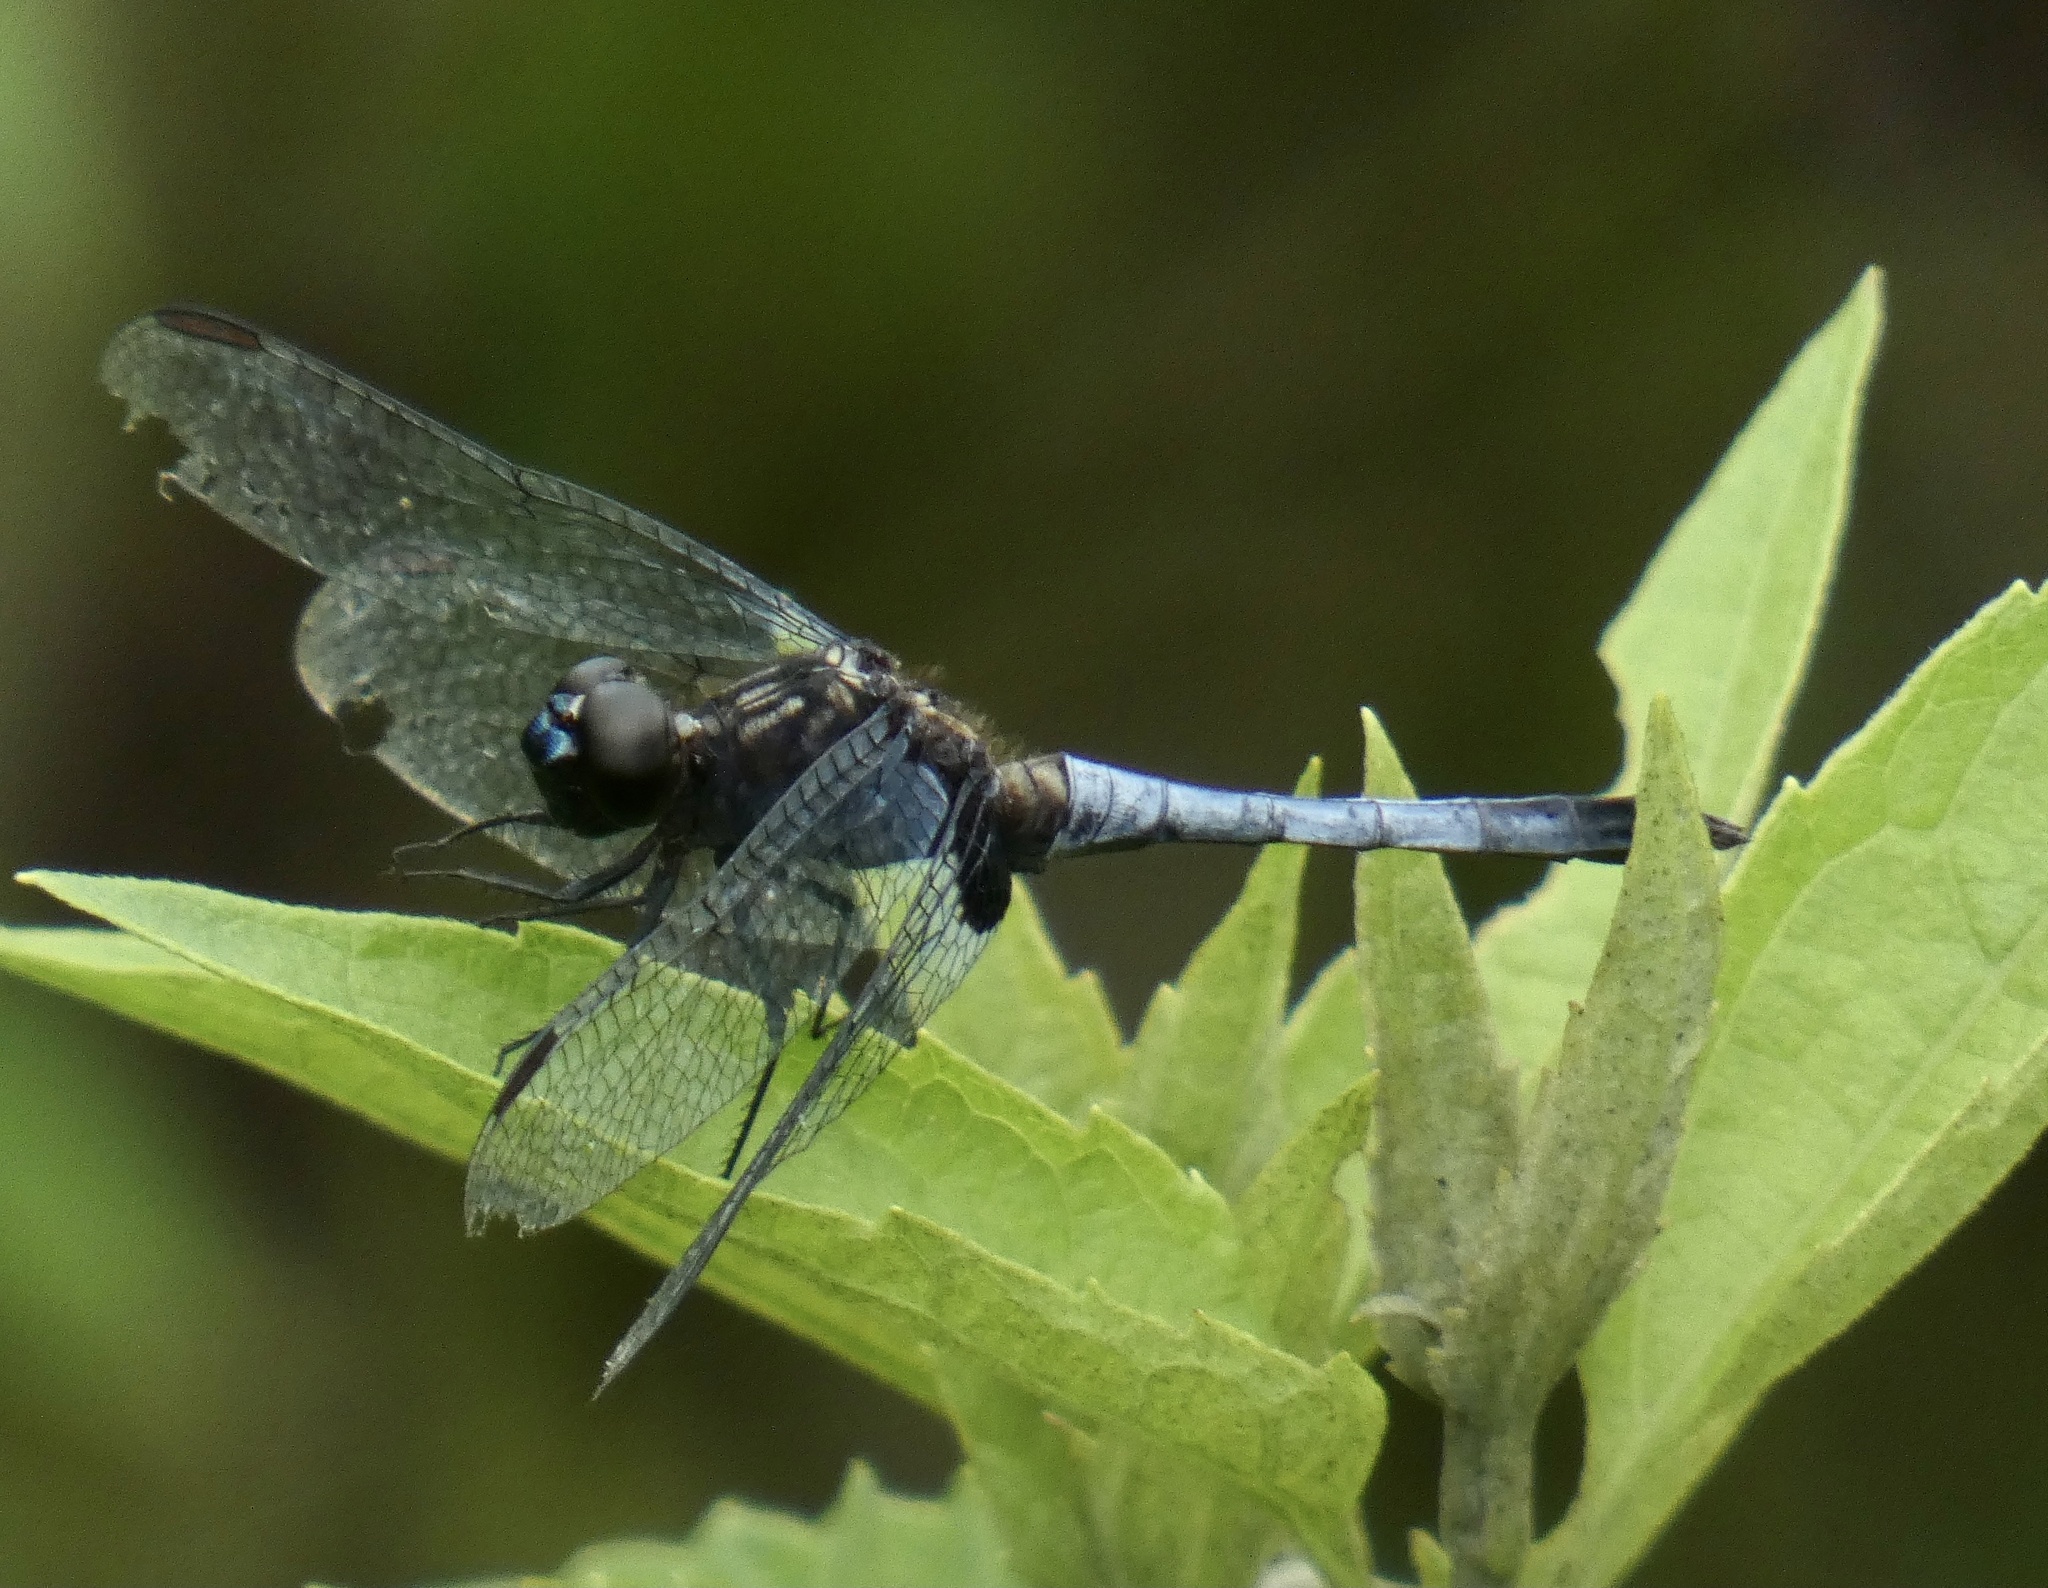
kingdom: Animalia
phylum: Arthropoda
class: Insecta
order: Odonata
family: Libellulidae
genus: Erythrodiplax
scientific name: Erythrodiplax avittata
